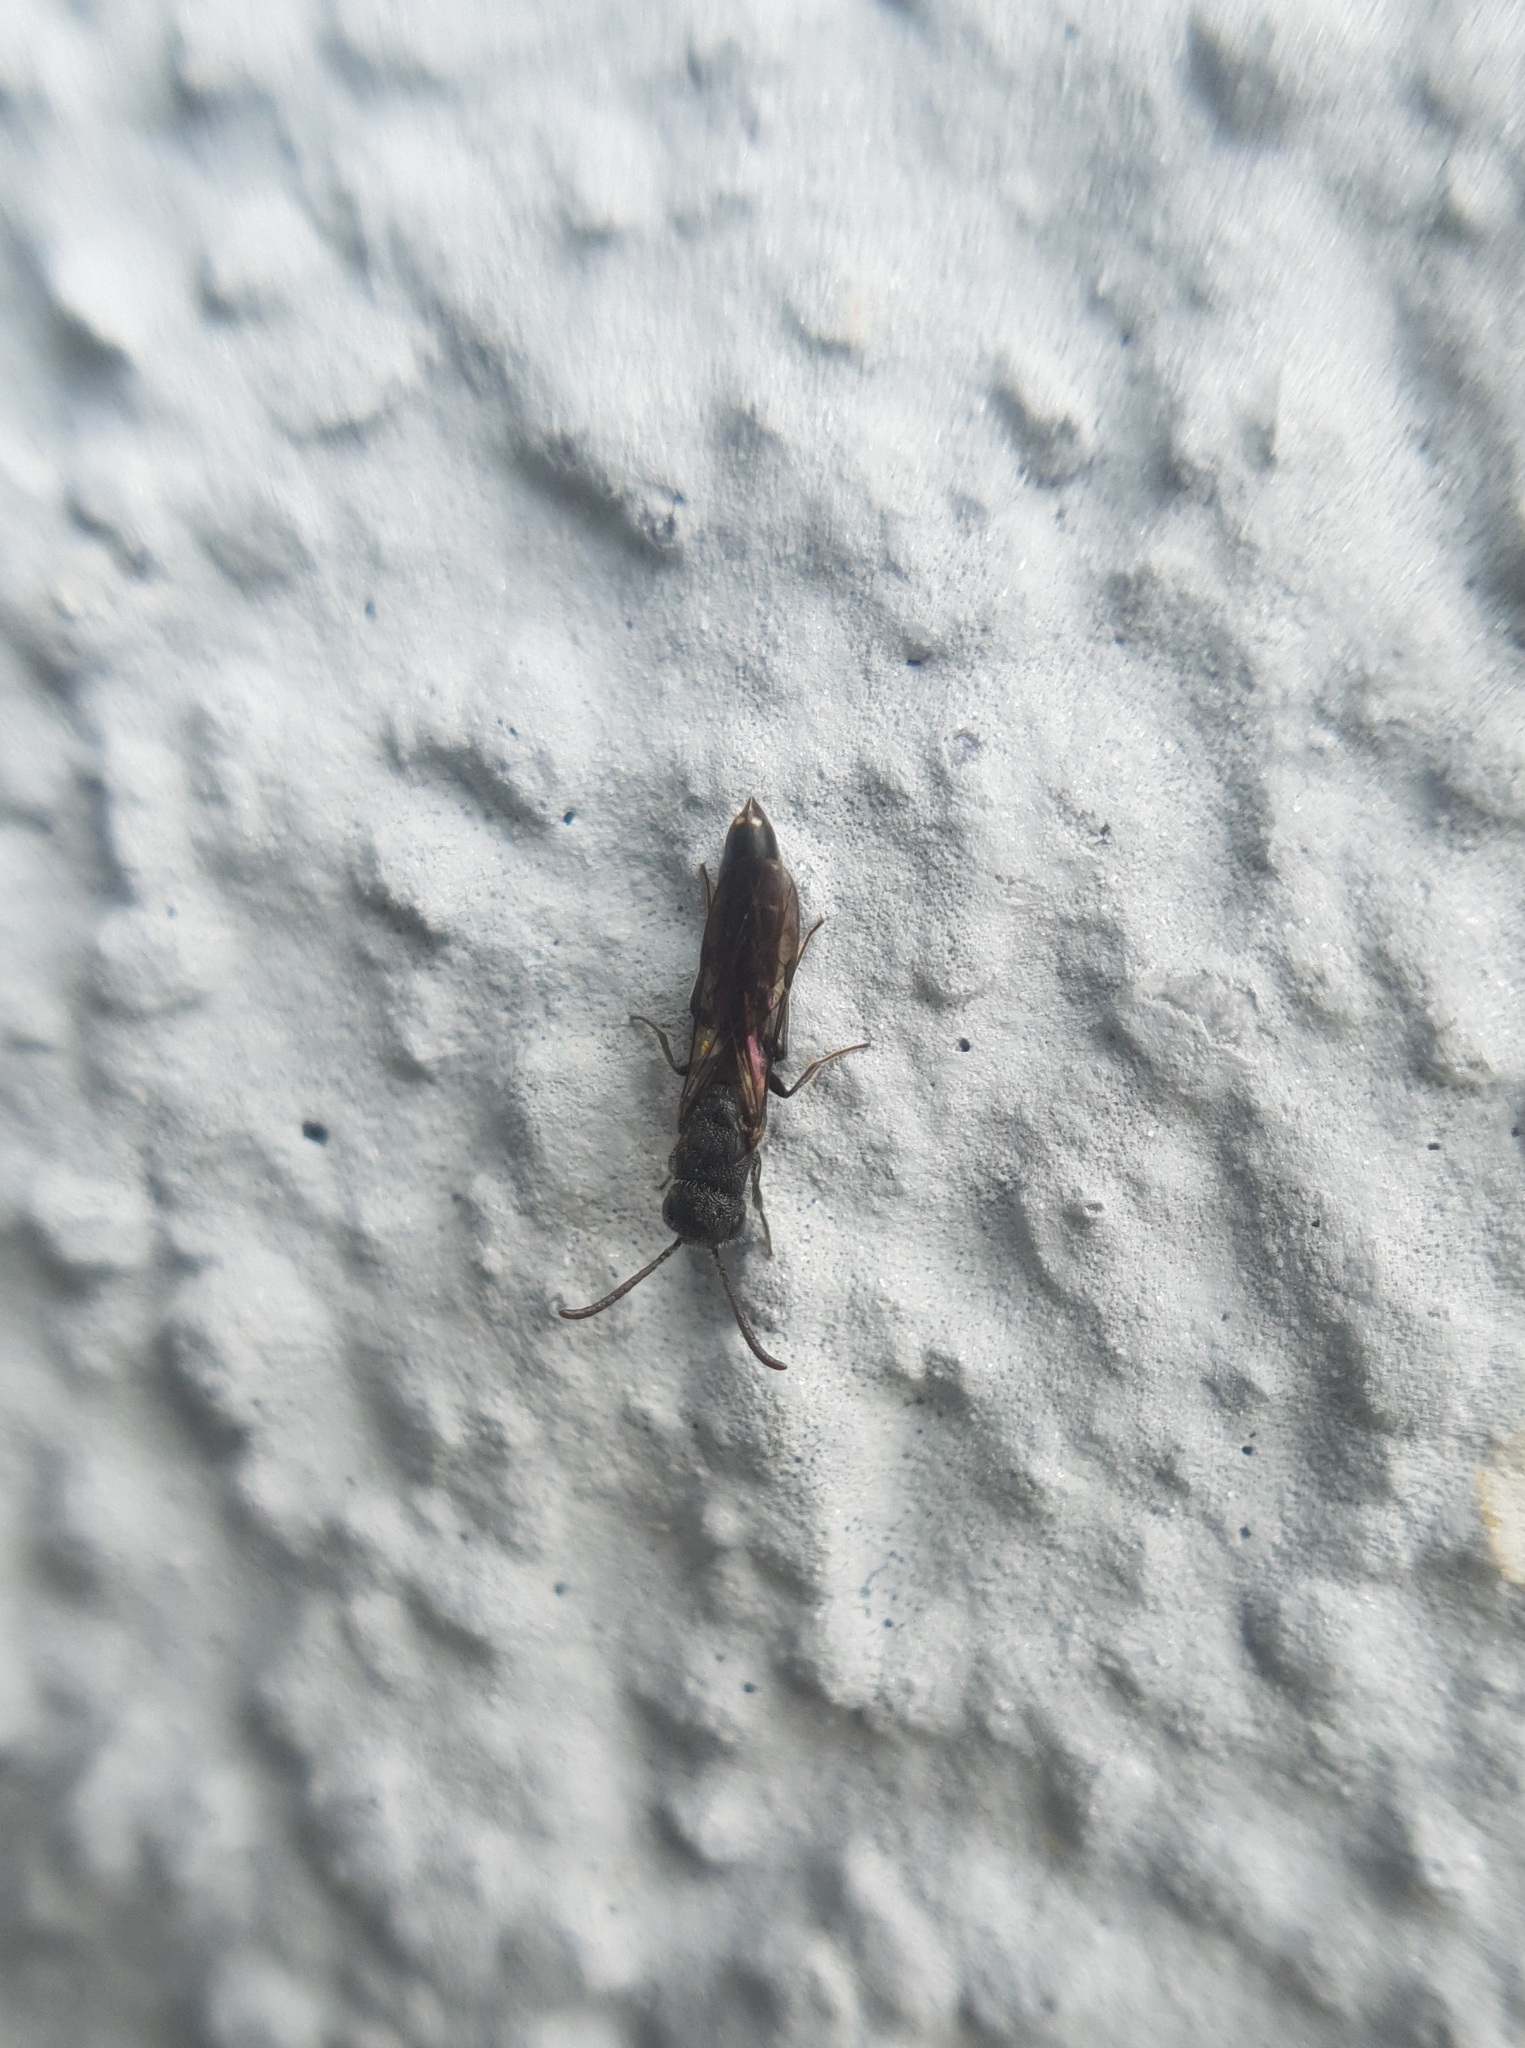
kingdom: Animalia
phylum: Arthropoda
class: Insecta
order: Hymenoptera
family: Sapygidae
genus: Sapygina
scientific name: Sapygina decemguttata
